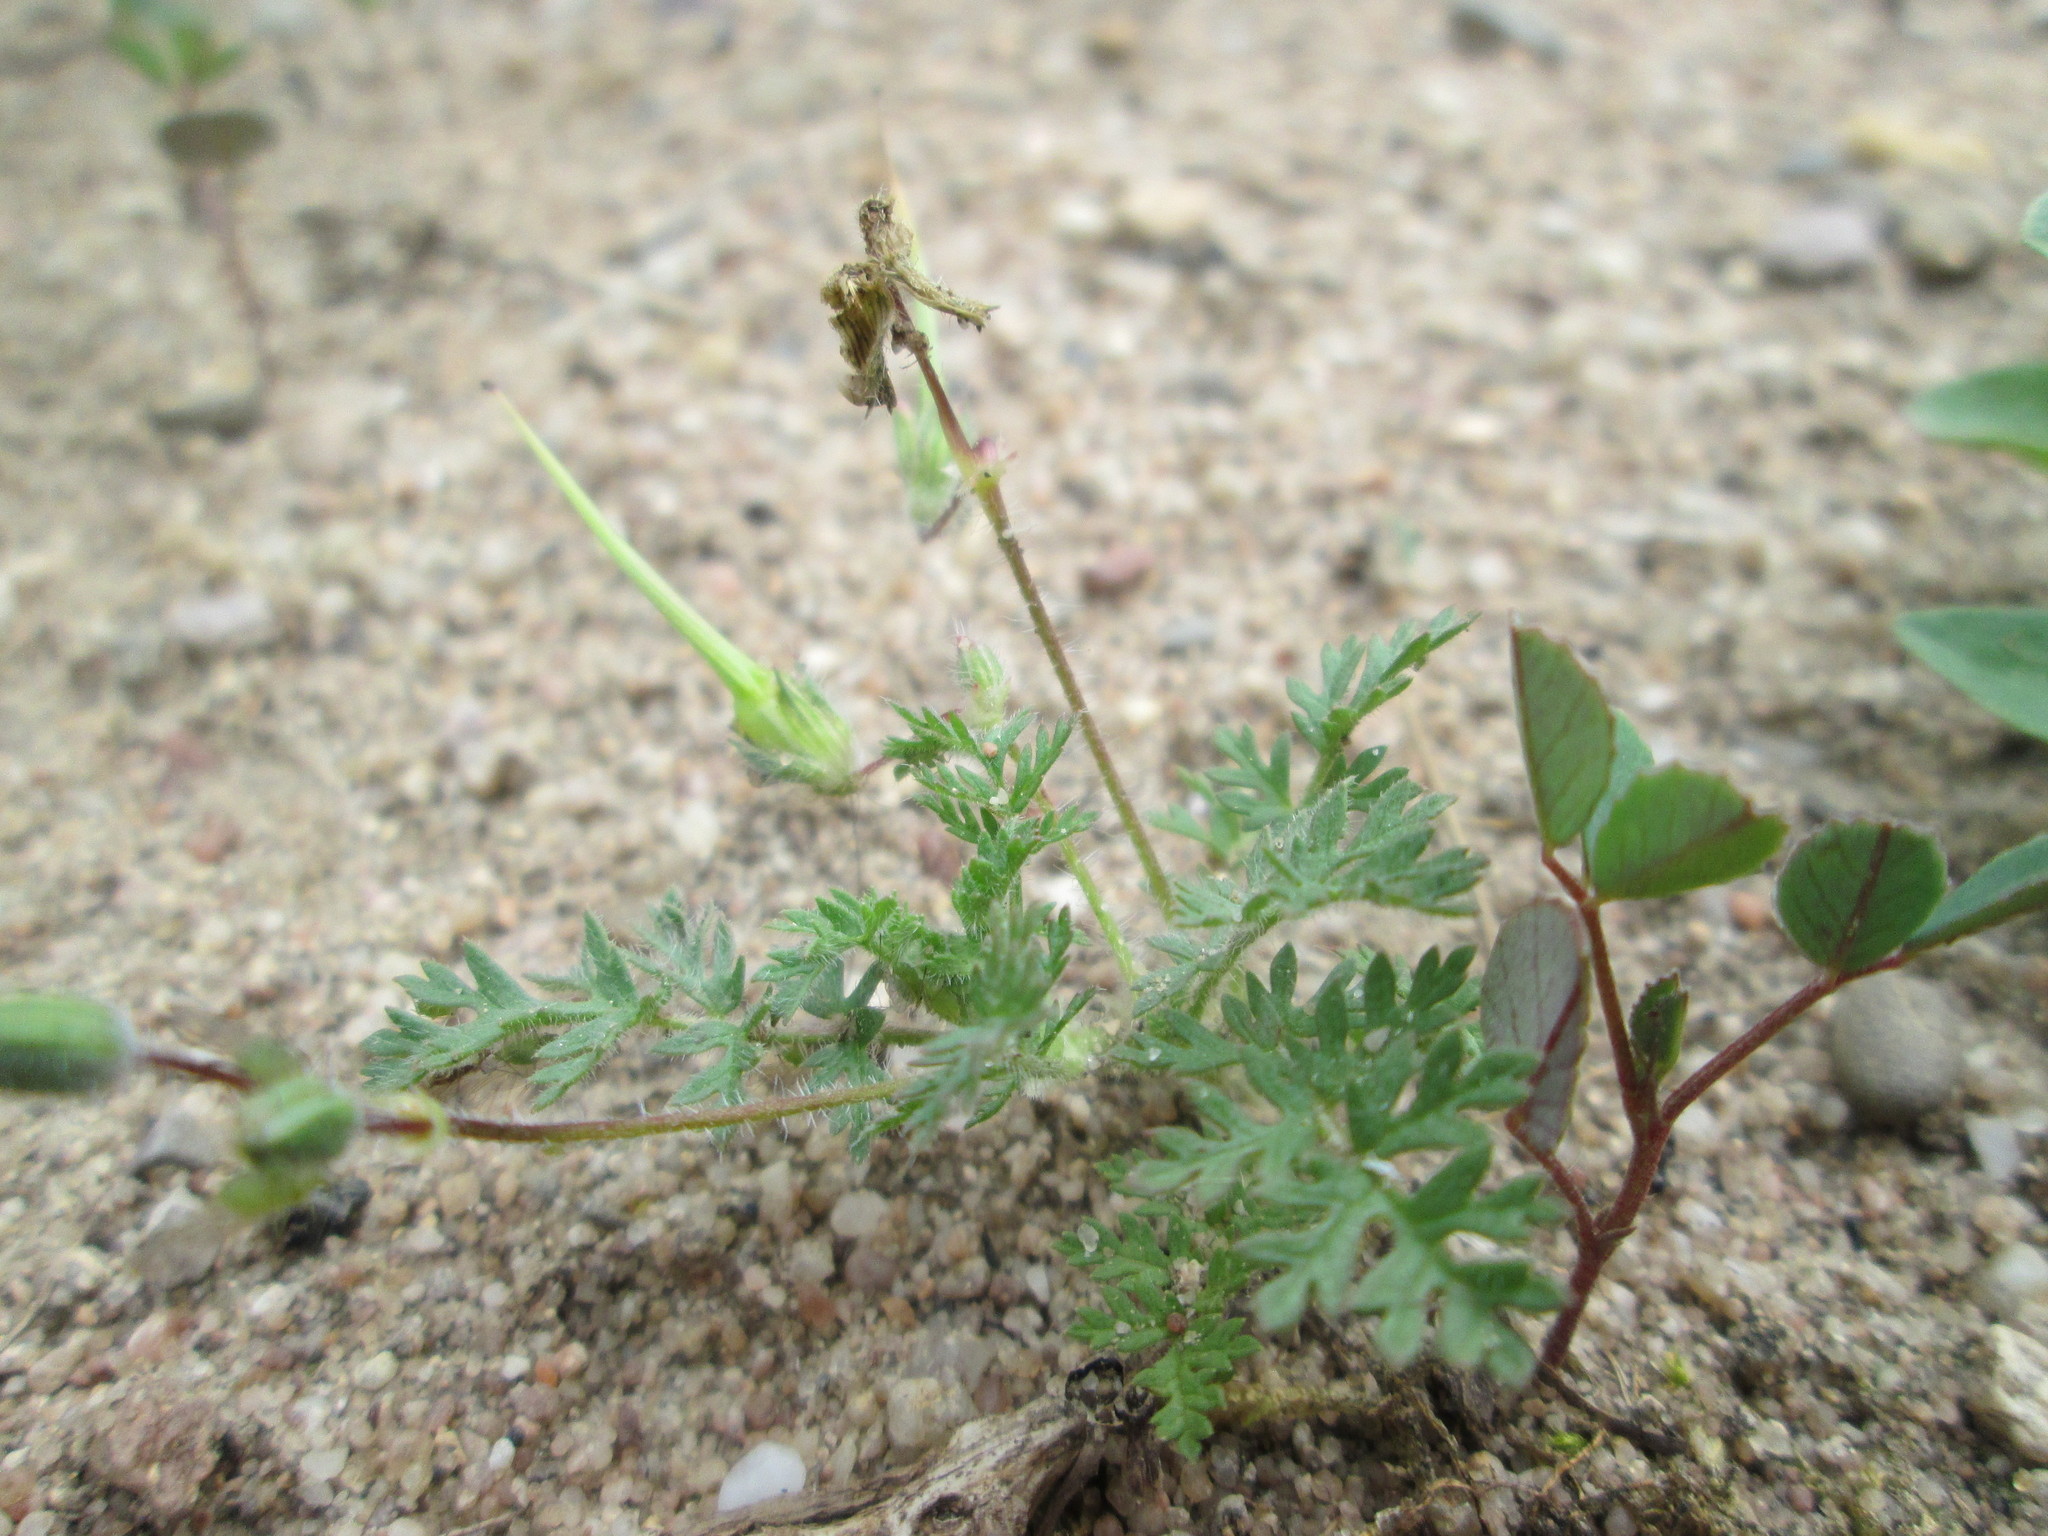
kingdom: Plantae
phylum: Tracheophyta
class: Magnoliopsida
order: Geraniales
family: Geraniaceae
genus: Erodium
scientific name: Erodium cicutarium
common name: Common stork's-bill
